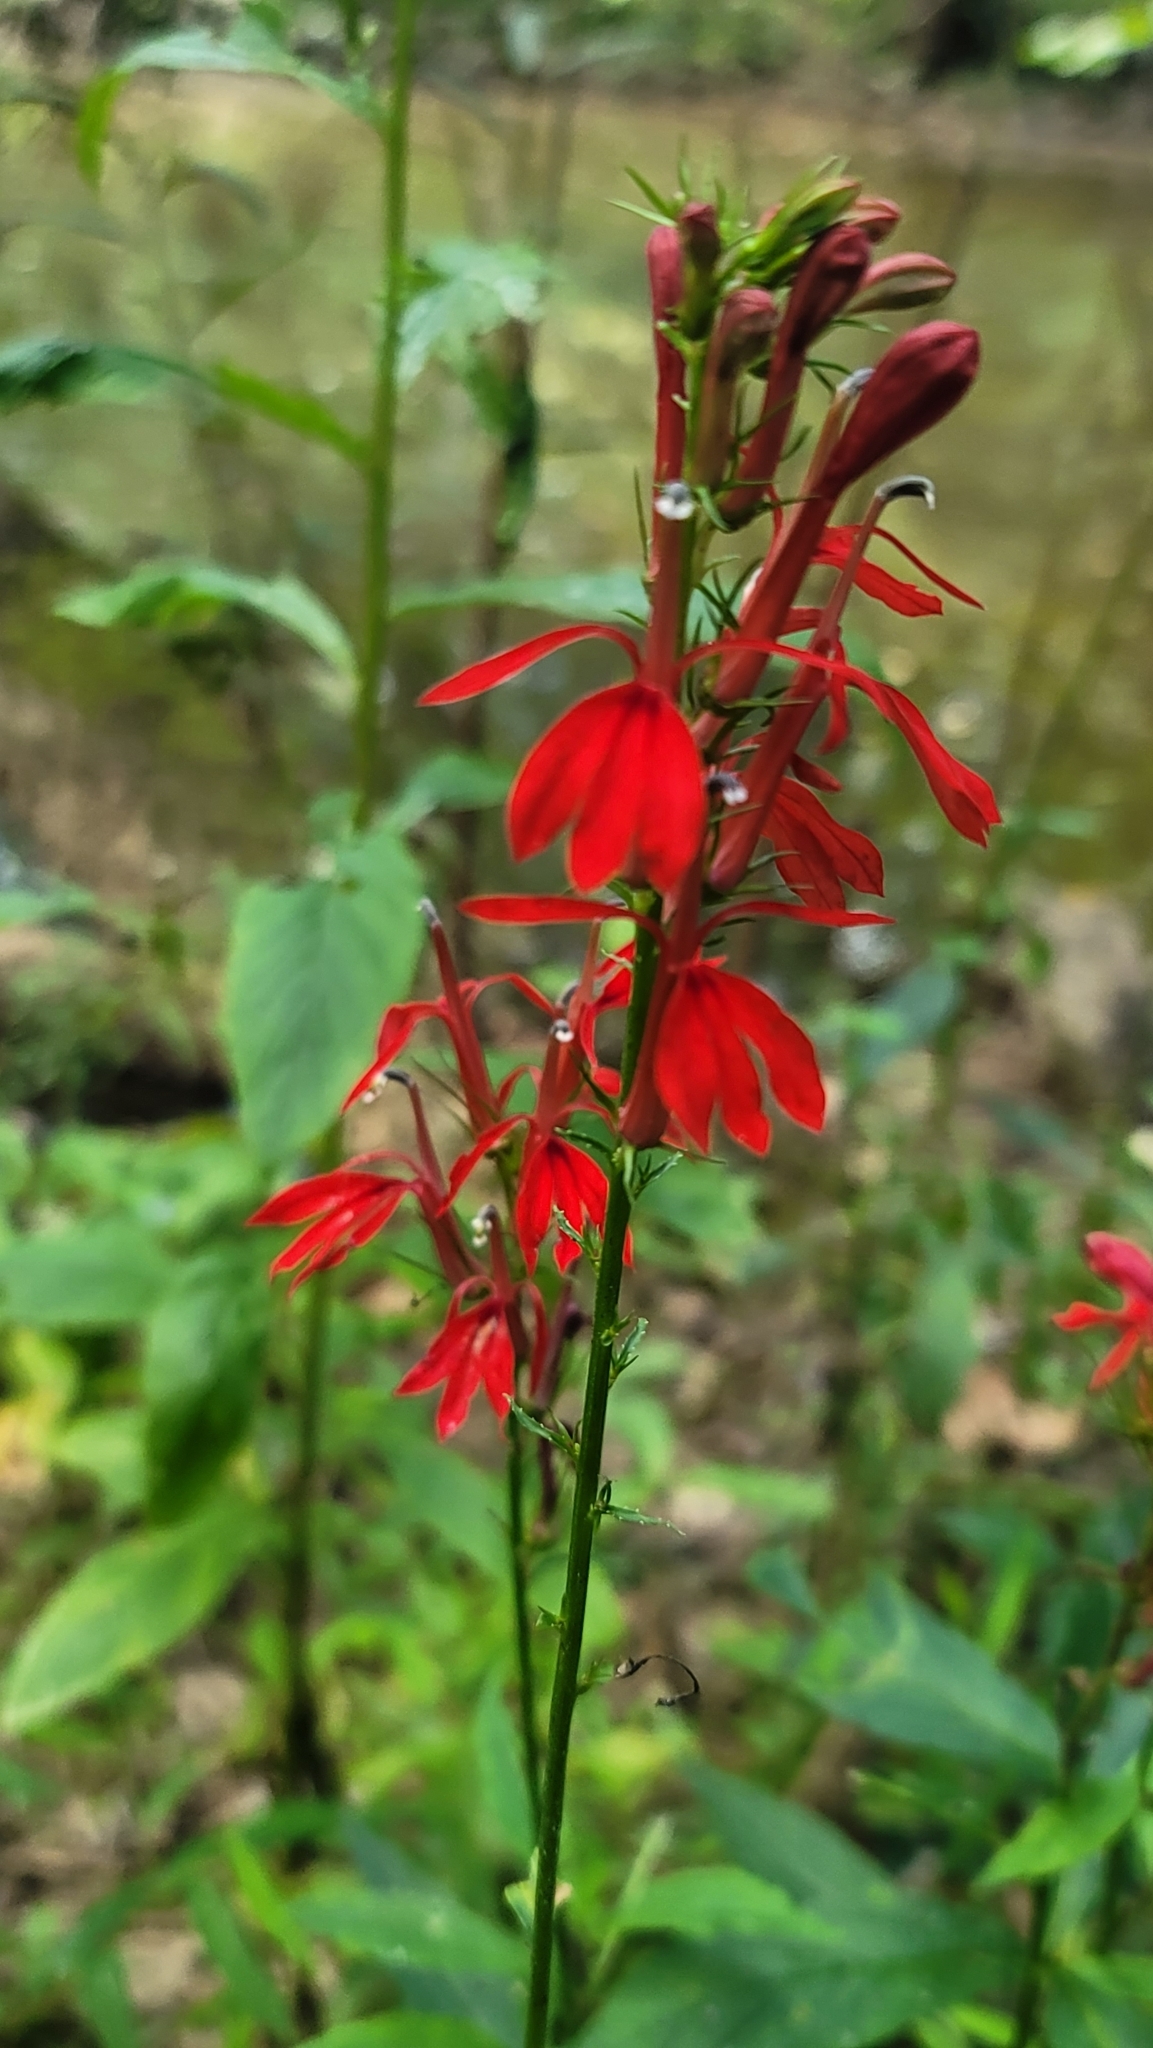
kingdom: Plantae
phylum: Tracheophyta
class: Magnoliopsida
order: Asterales
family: Campanulaceae
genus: Lobelia
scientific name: Lobelia cardinalis
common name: Cardinal flower
